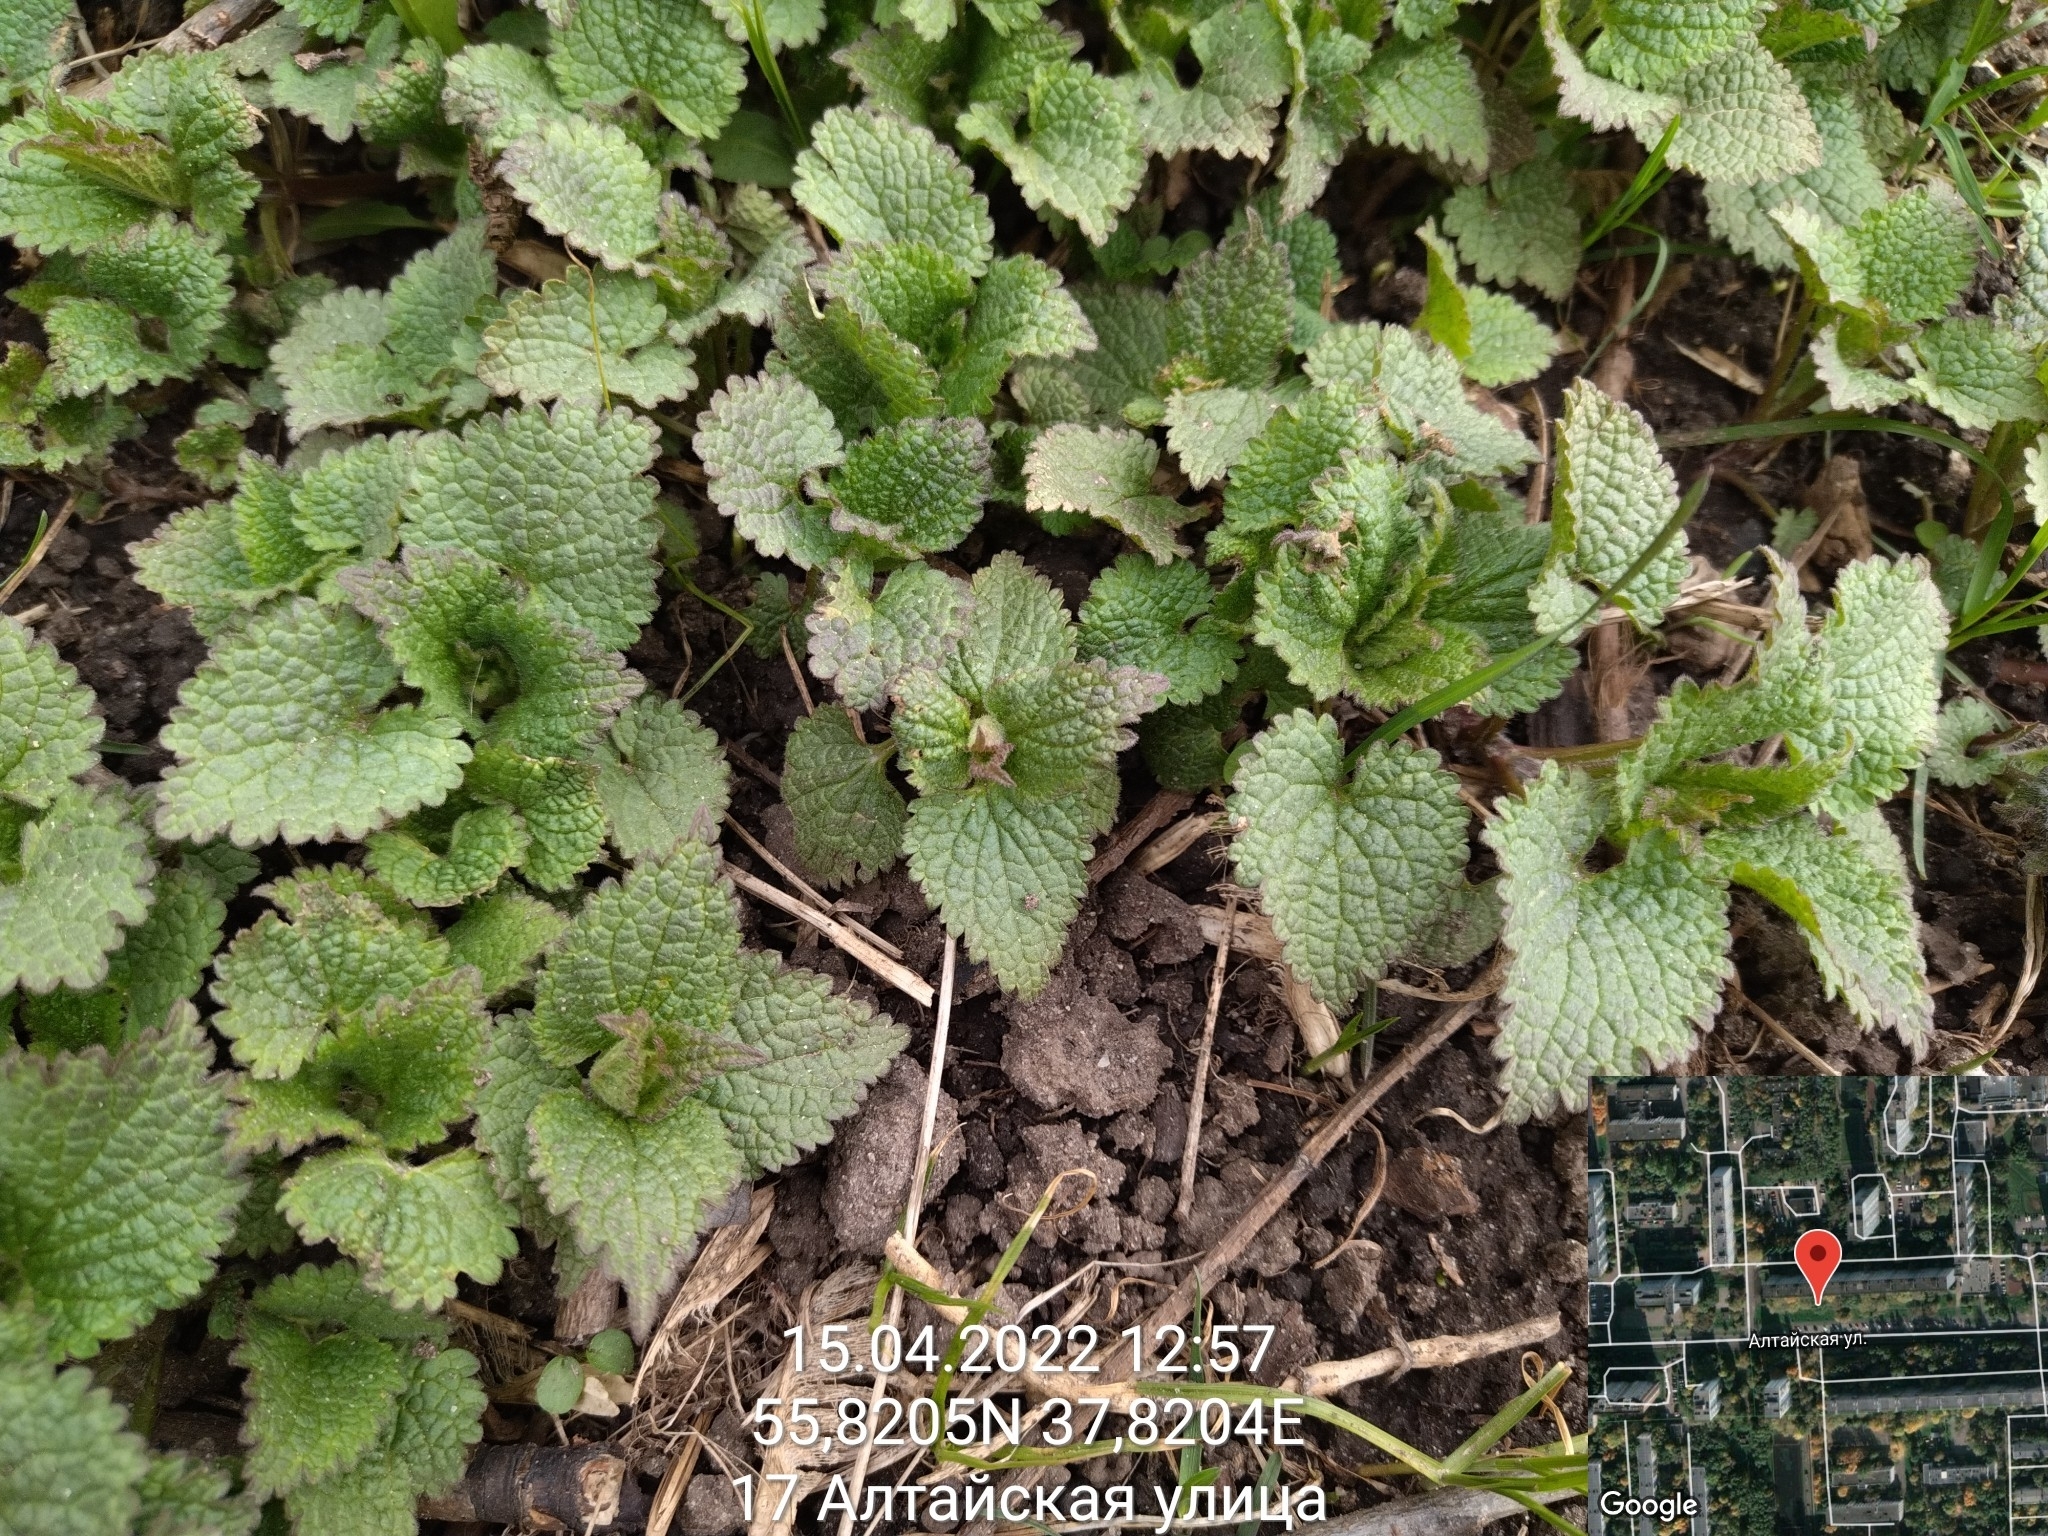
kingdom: Plantae
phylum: Tracheophyta
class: Magnoliopsida
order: Lamiales
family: Lamiaceae
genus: Lamium
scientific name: Lamium album
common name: White dead-nettle
